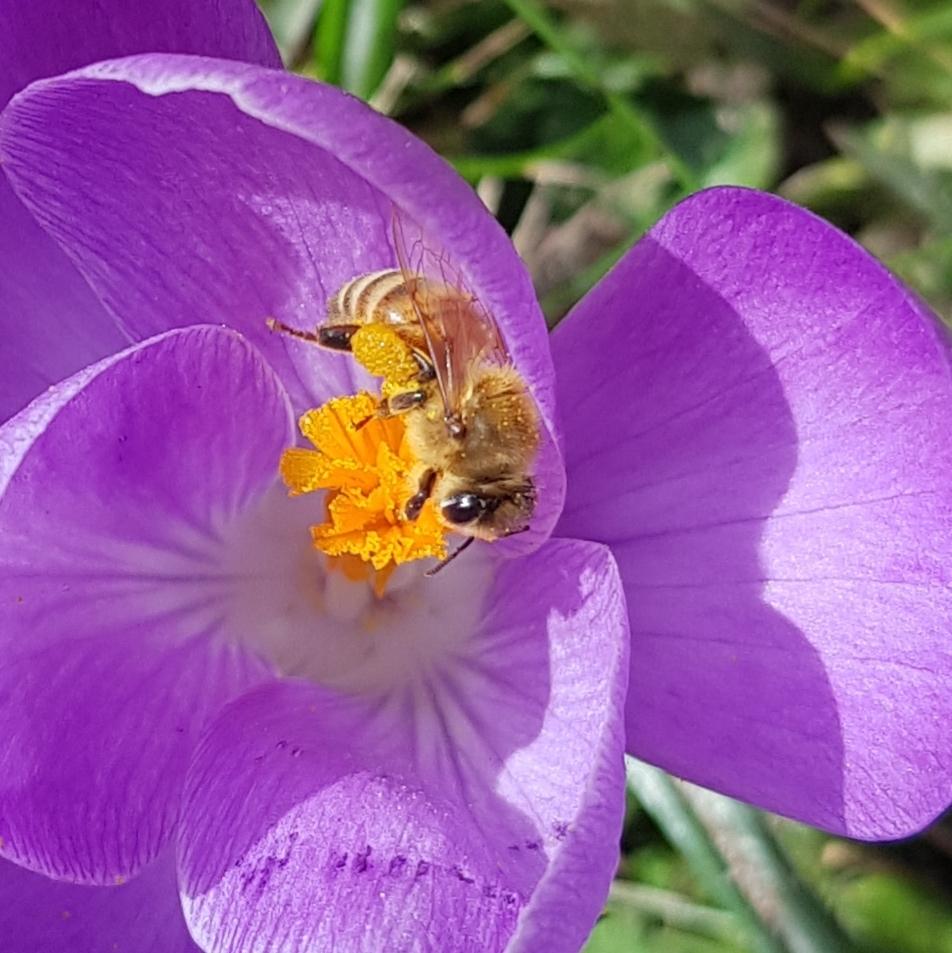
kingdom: Animalia
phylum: Arthropoda
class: Insecta
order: Hymenoptera
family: Apidae
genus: Apis
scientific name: Apis mellifera
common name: Honey bee
